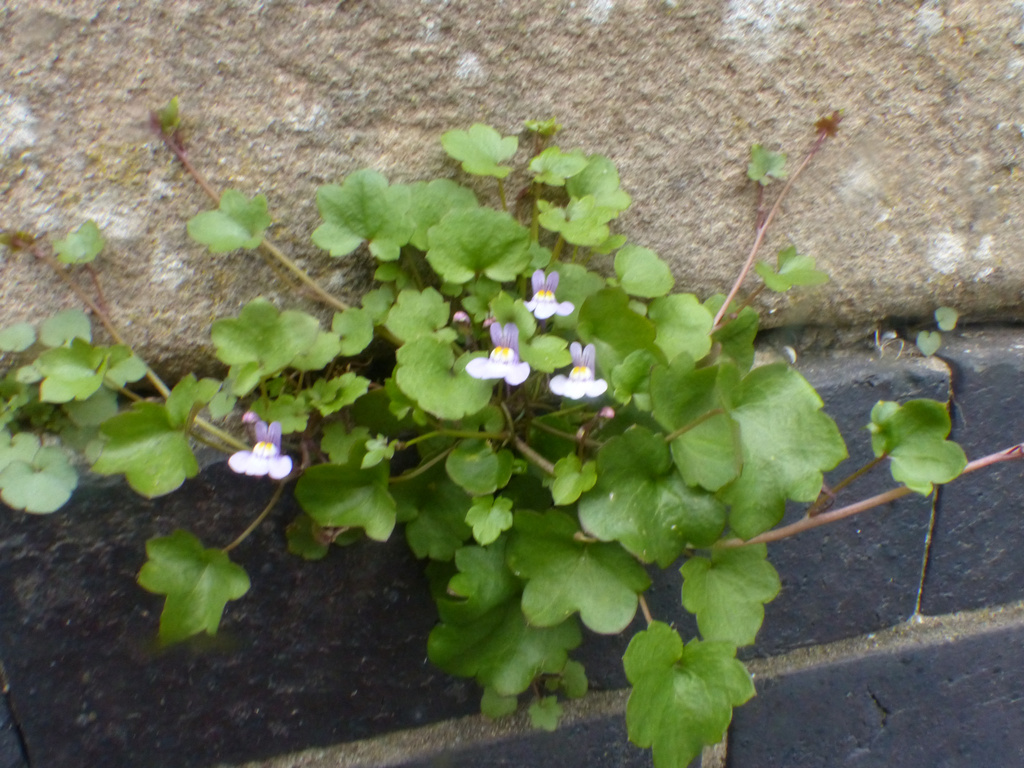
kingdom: Plantae
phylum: Tracheophyta
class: Magnoliopsida
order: Lamiales
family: Plantaginaceae
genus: Cymbalaria
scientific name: Cymbalaria muralis
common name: Ivy-leaved toadflax
